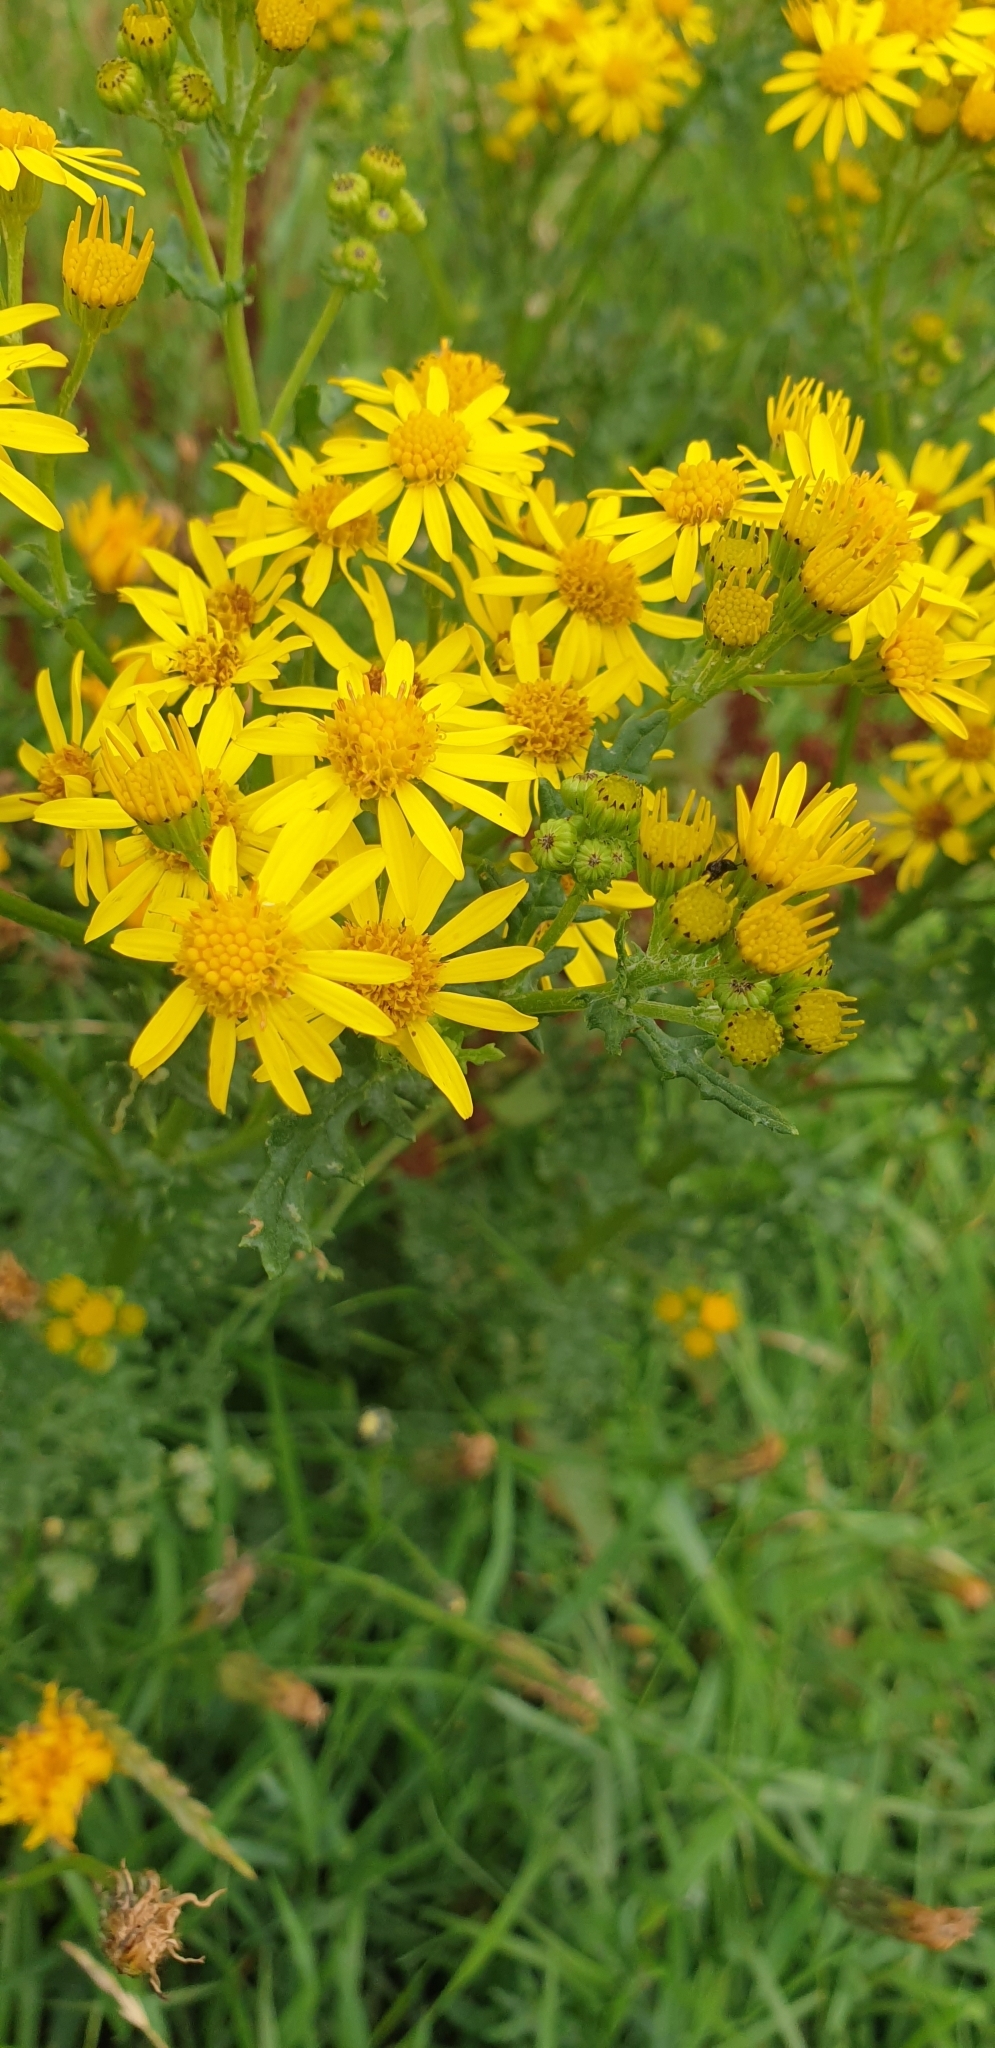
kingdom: Plantae
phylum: Tracheophyta
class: Magnoliopsida
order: Asterales
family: Asteraceae
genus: Jacobaea
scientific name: Jacobaea vulgaris
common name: Stinking willie
